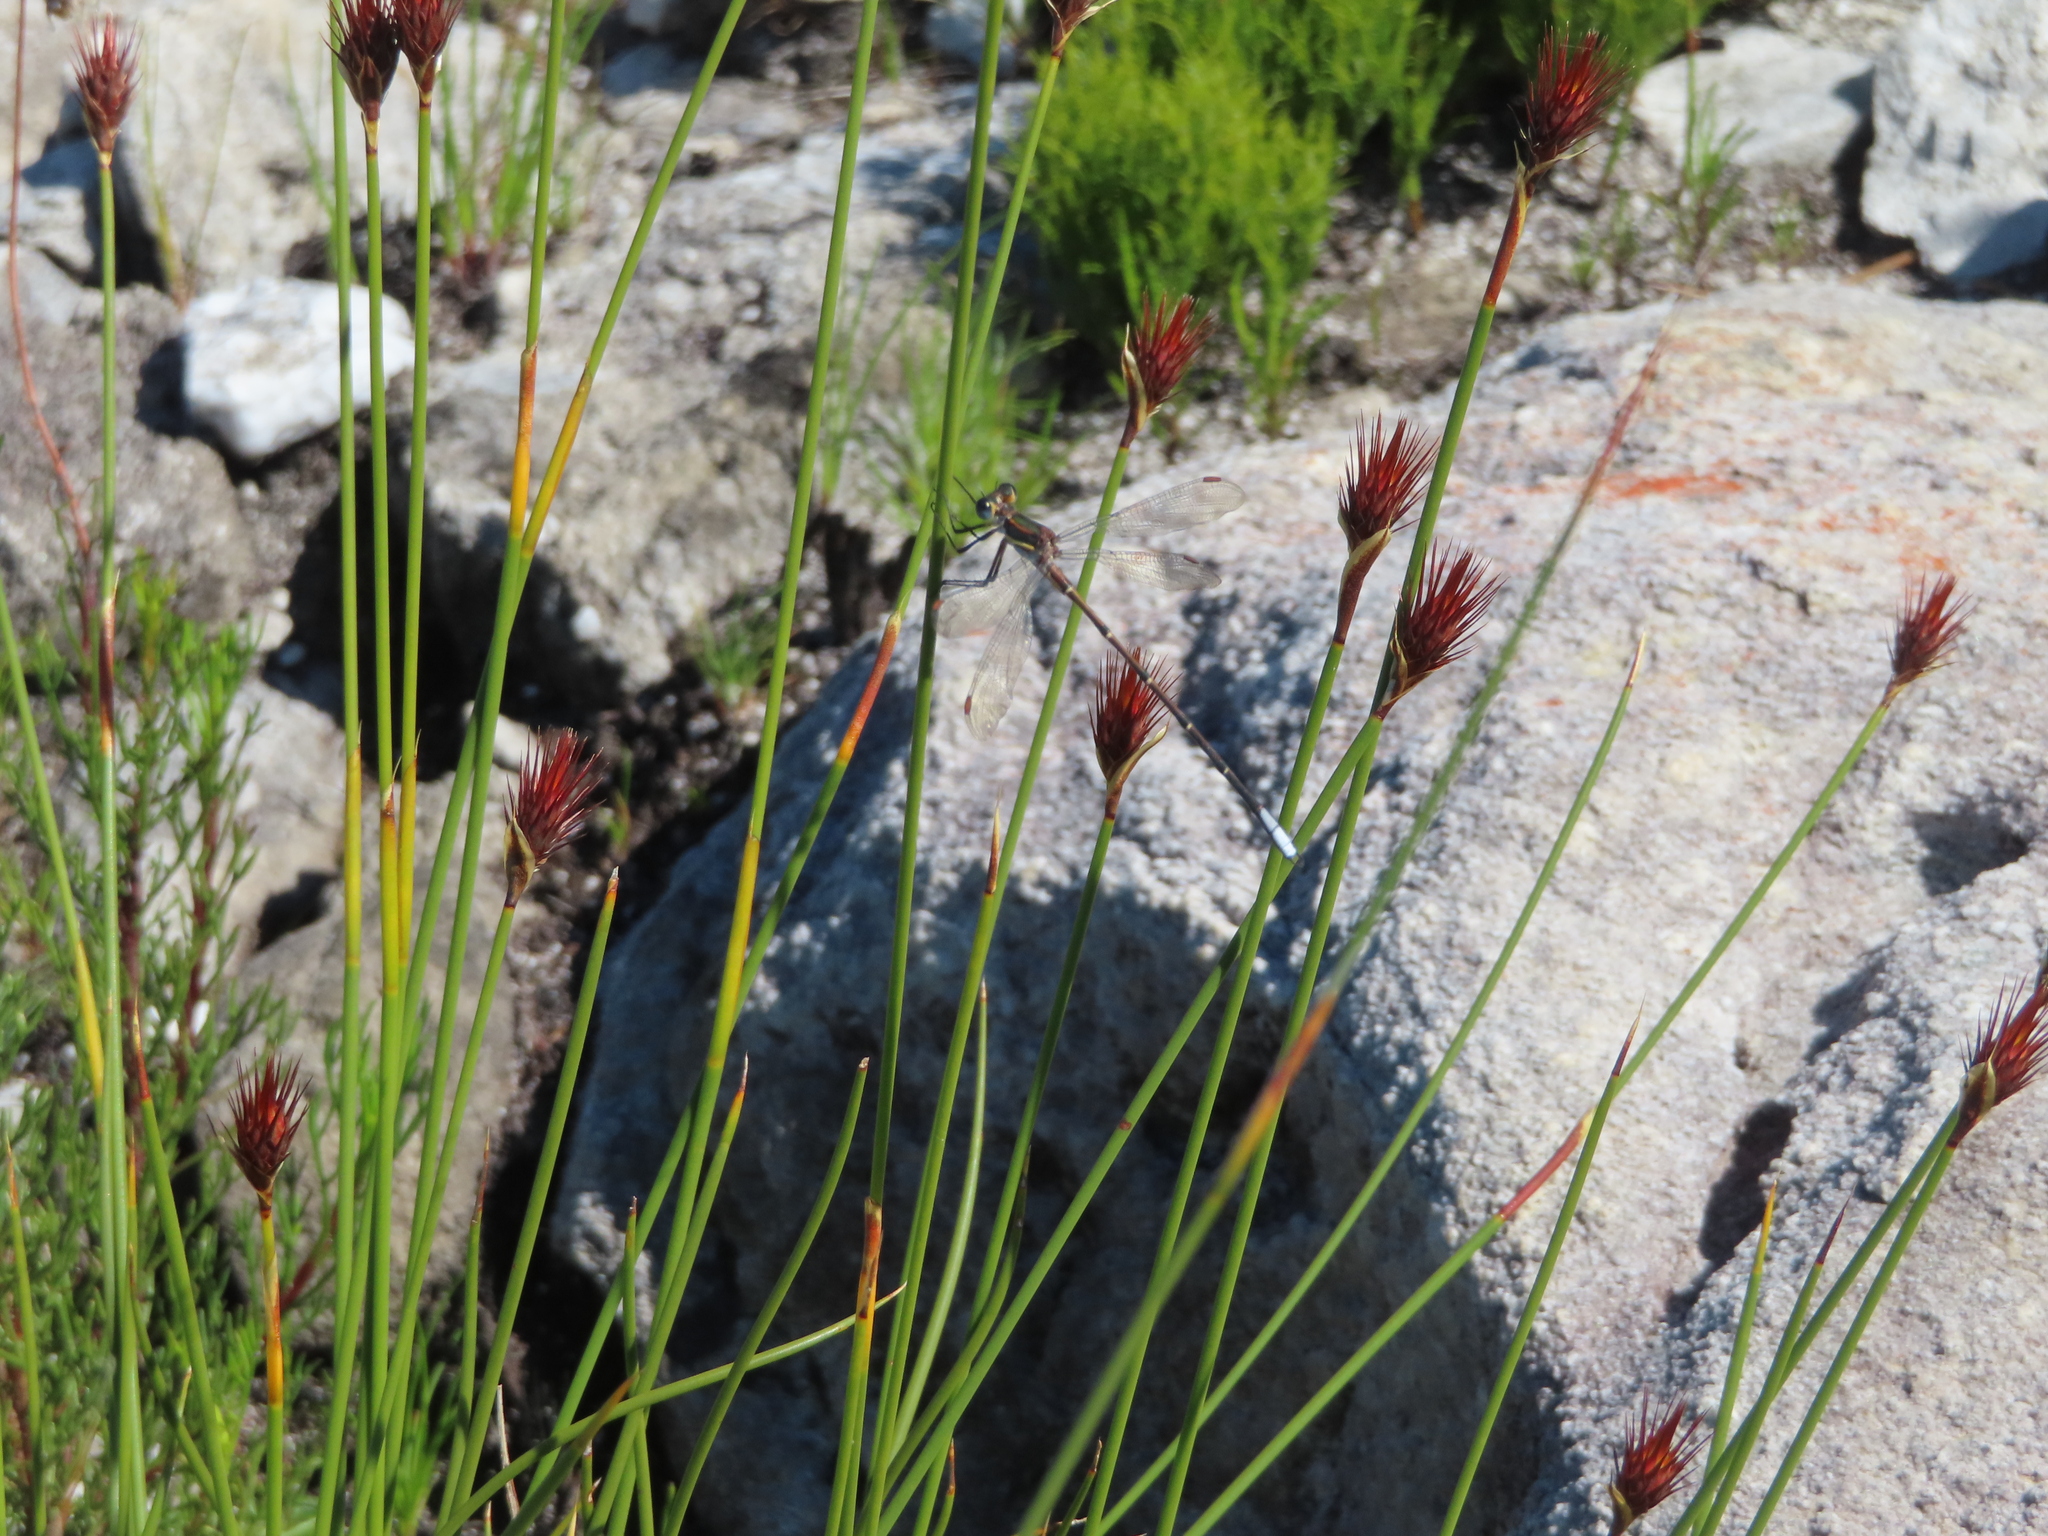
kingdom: Animalia
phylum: Arthropoda
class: Insecta
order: Odonata
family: Synlestidae
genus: Chlorolestes
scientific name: Chlorolestes conspicuus
